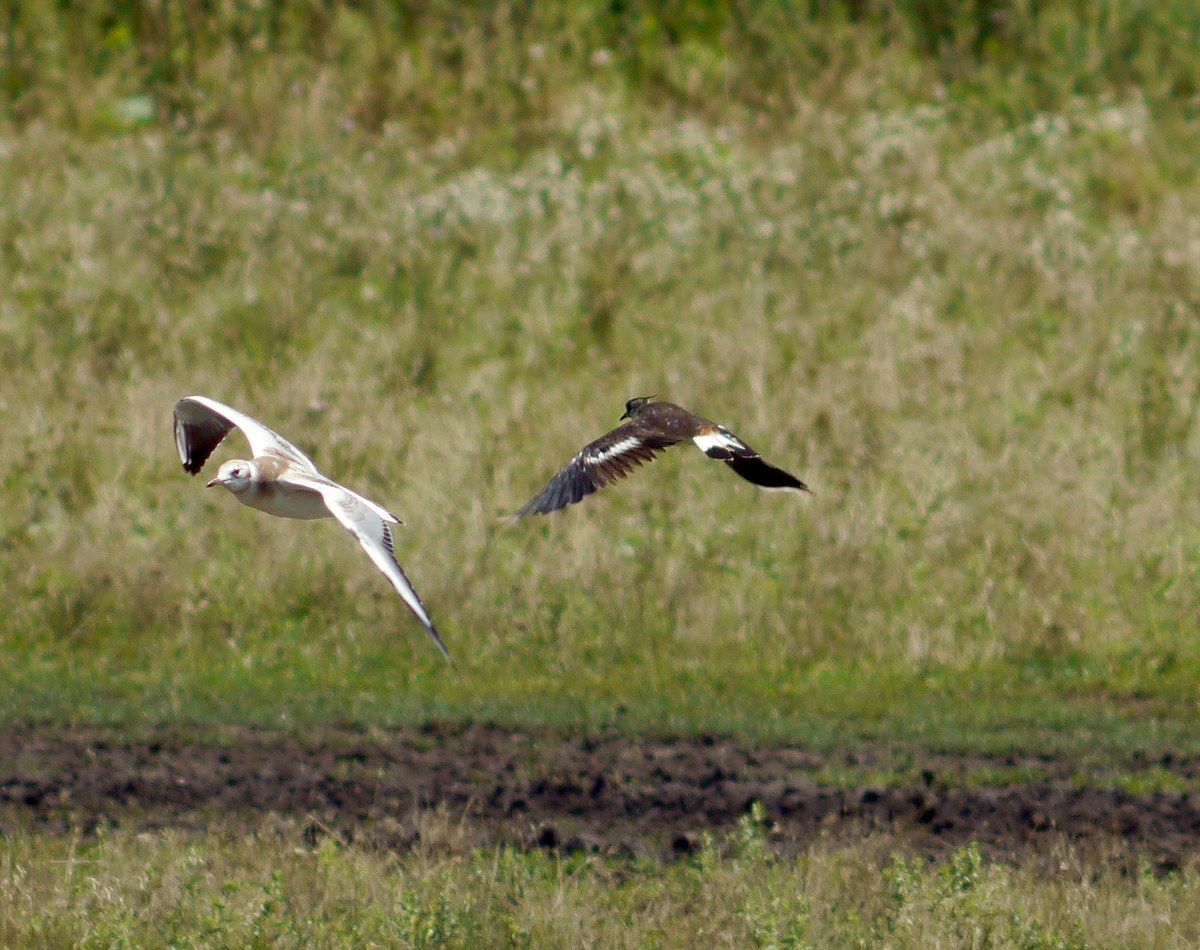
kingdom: Animalia
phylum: Chordata
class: Aves
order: Charadriiformes
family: Charadriidae
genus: Vanellus
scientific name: Vanellus vanellus
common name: Northern lapwing
